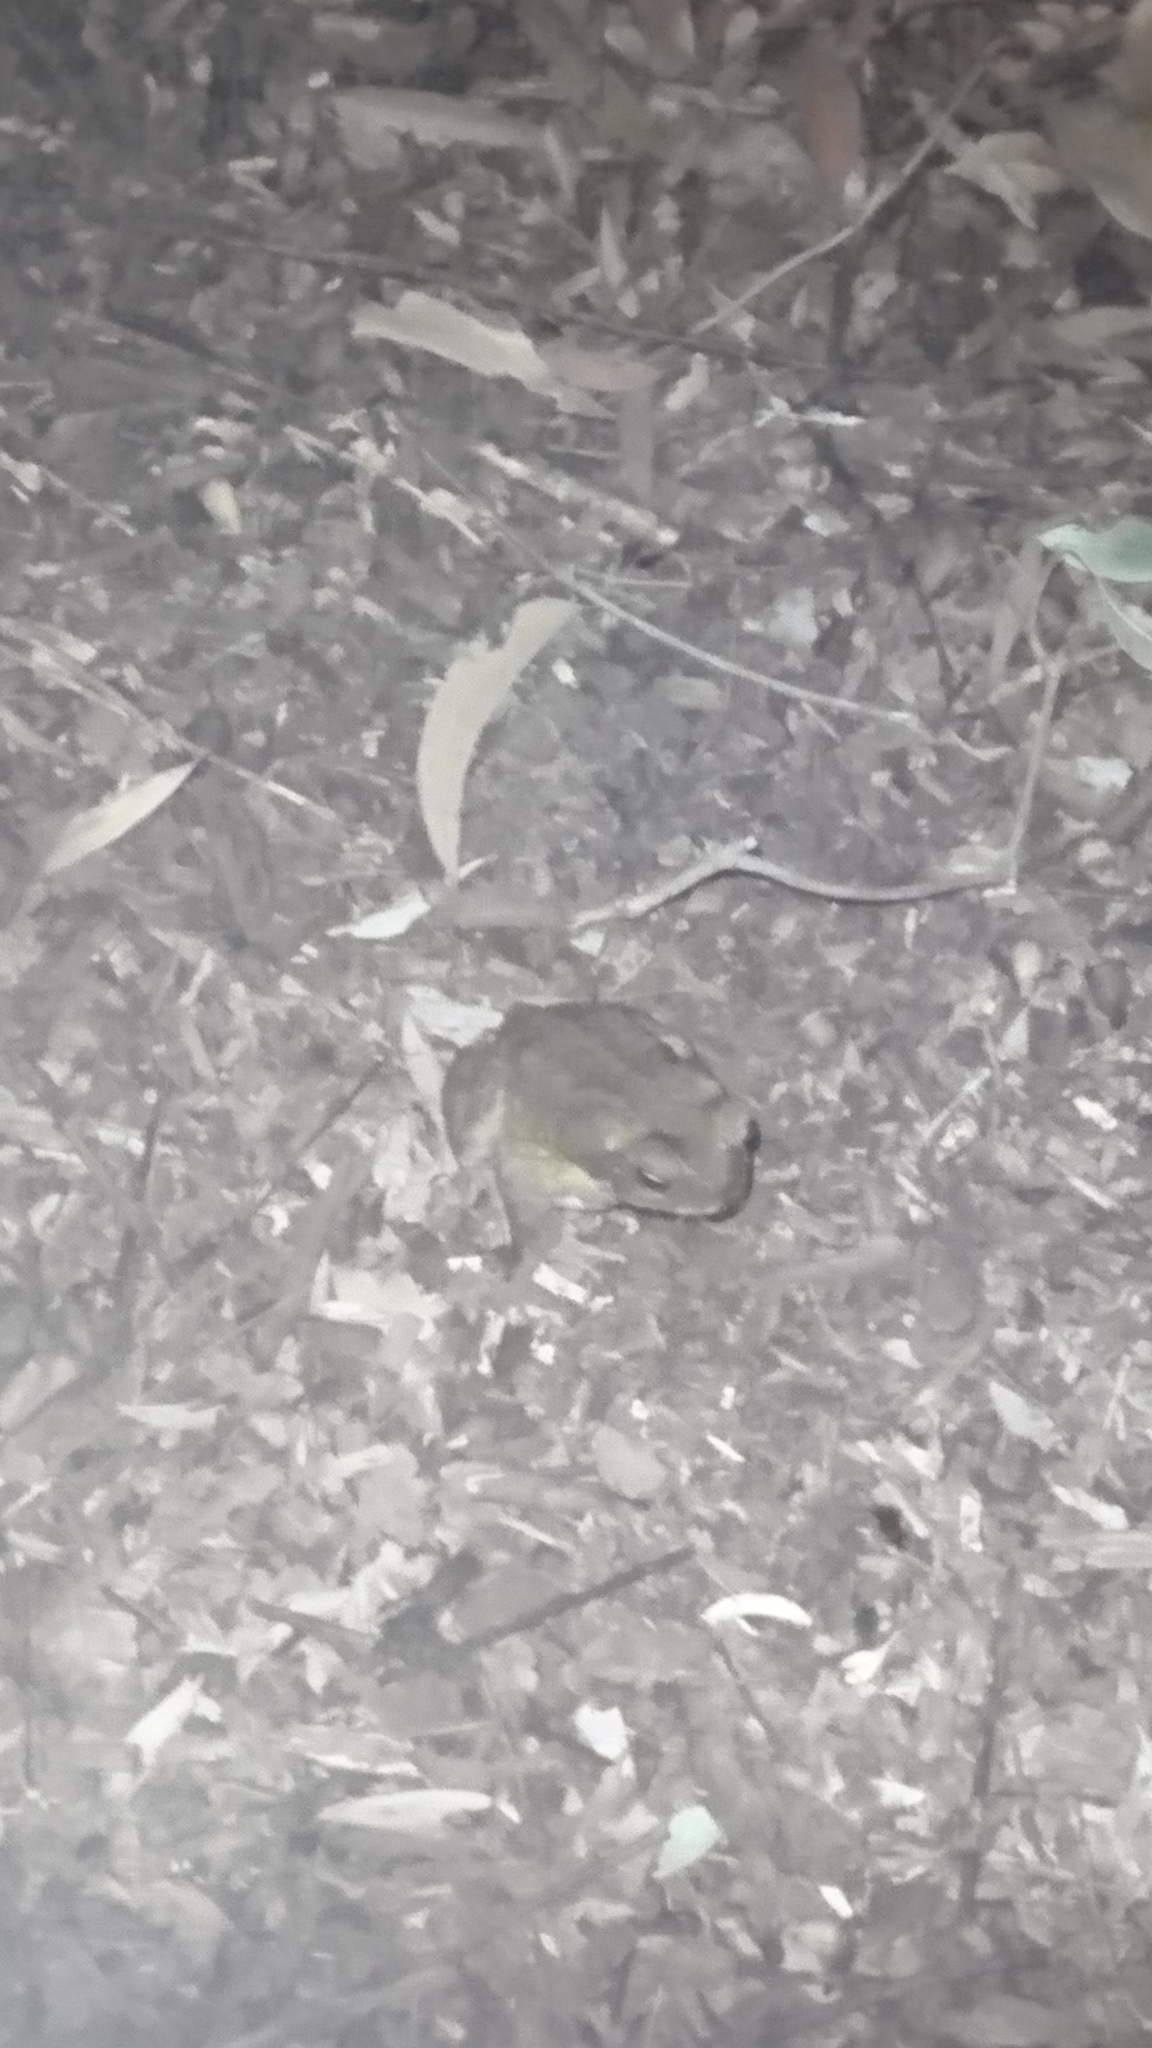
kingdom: Animalia
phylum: Chordata
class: Amphibia
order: Anura
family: Bufonidae
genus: Rhinella
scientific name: Rhinella marina
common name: Cane toad
